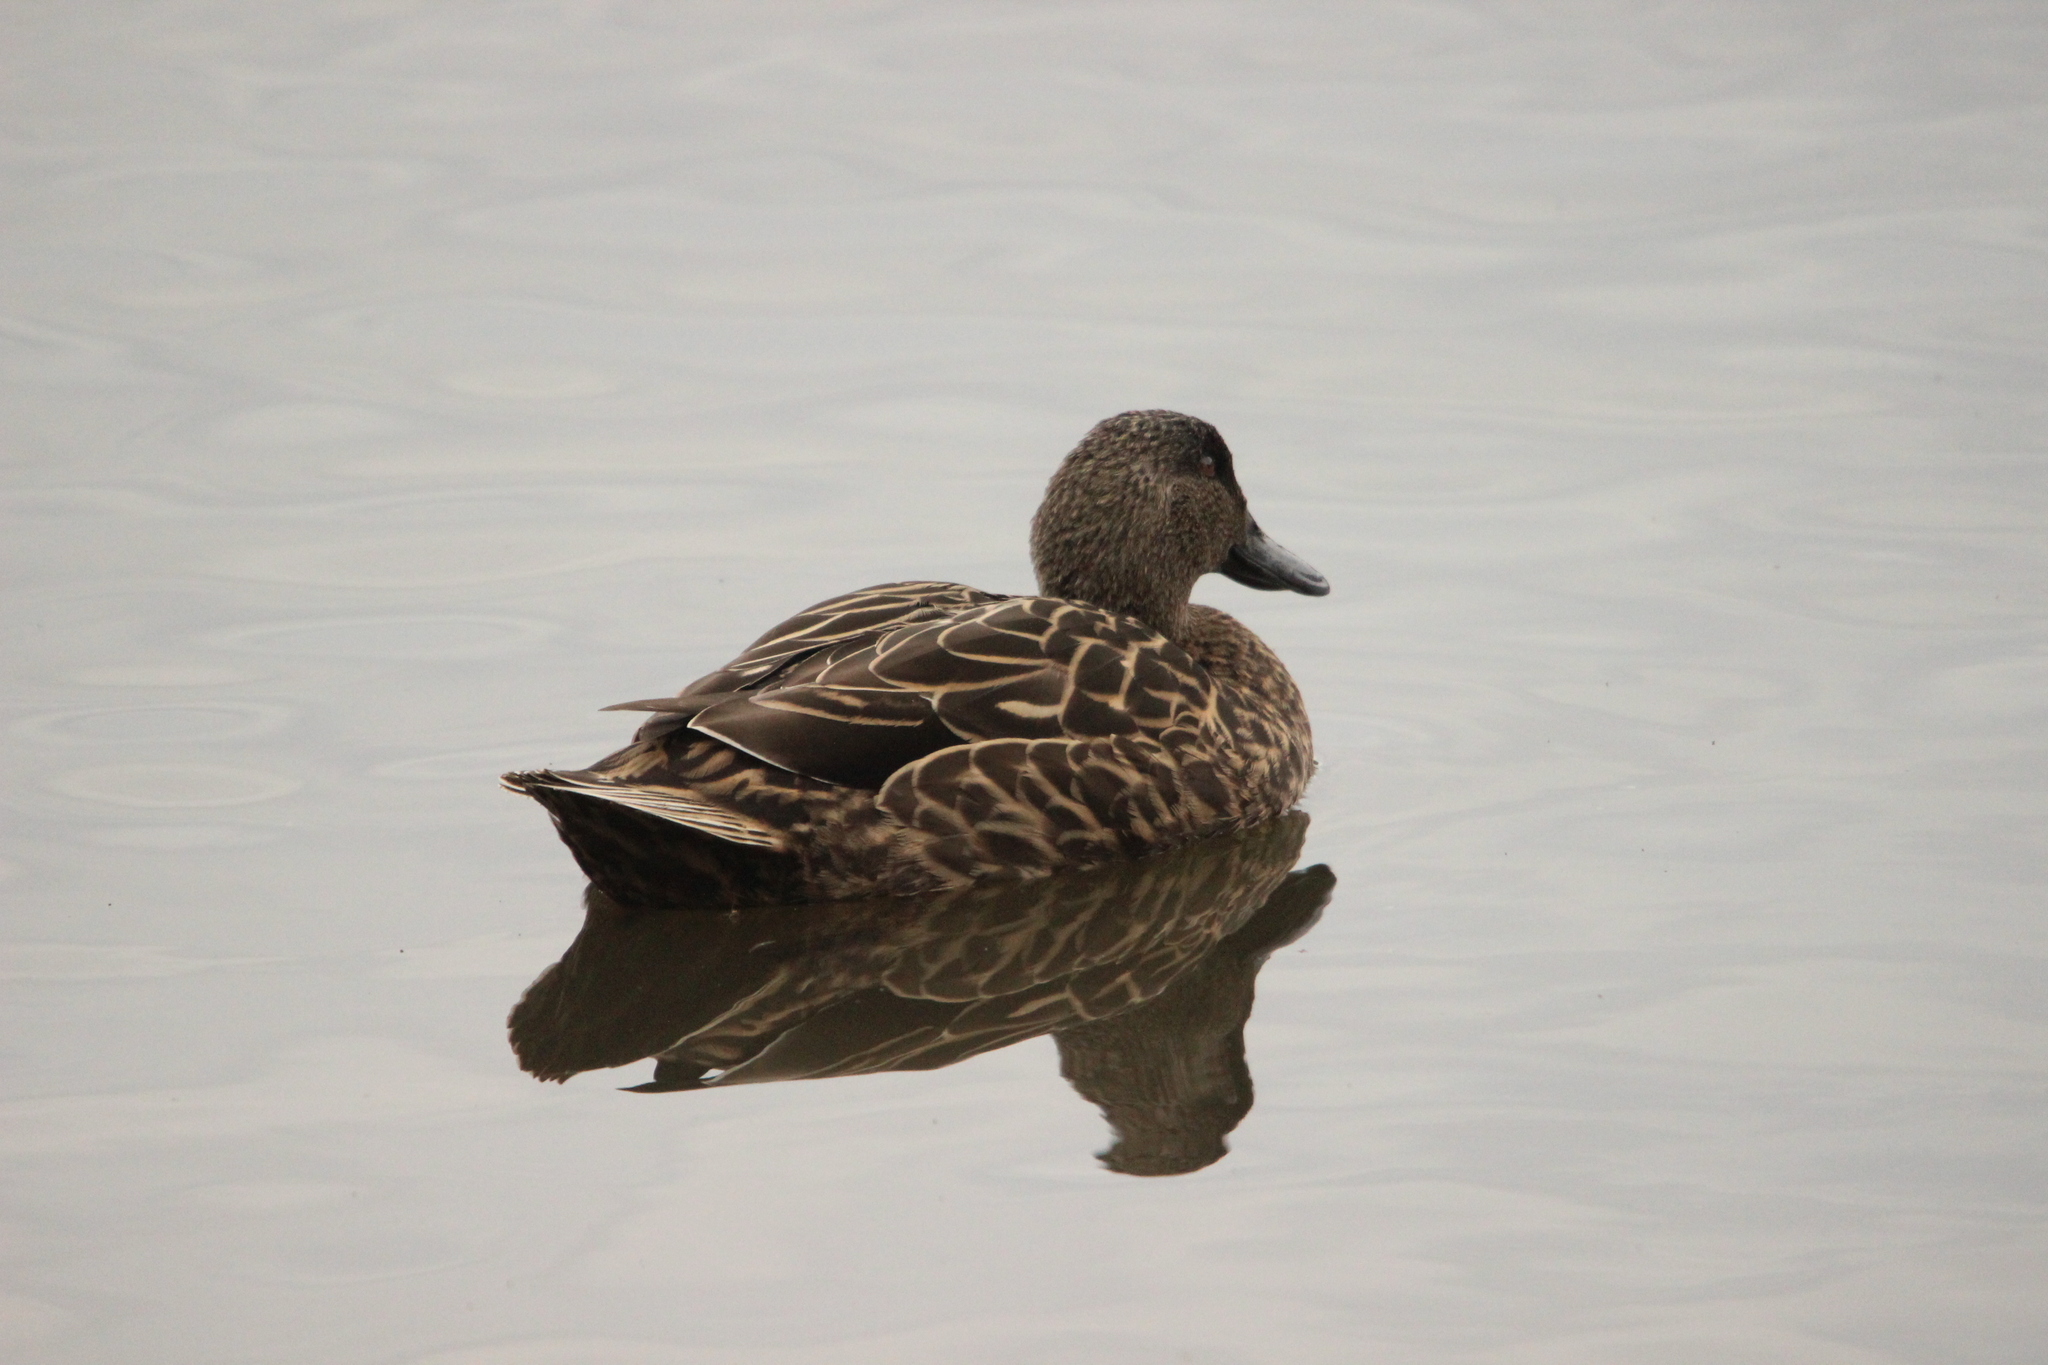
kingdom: Animalia
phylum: Chordata
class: Aves
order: Anseriformes
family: Anatidae
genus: Anas
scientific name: Anas platyrhynchos
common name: Mallard
